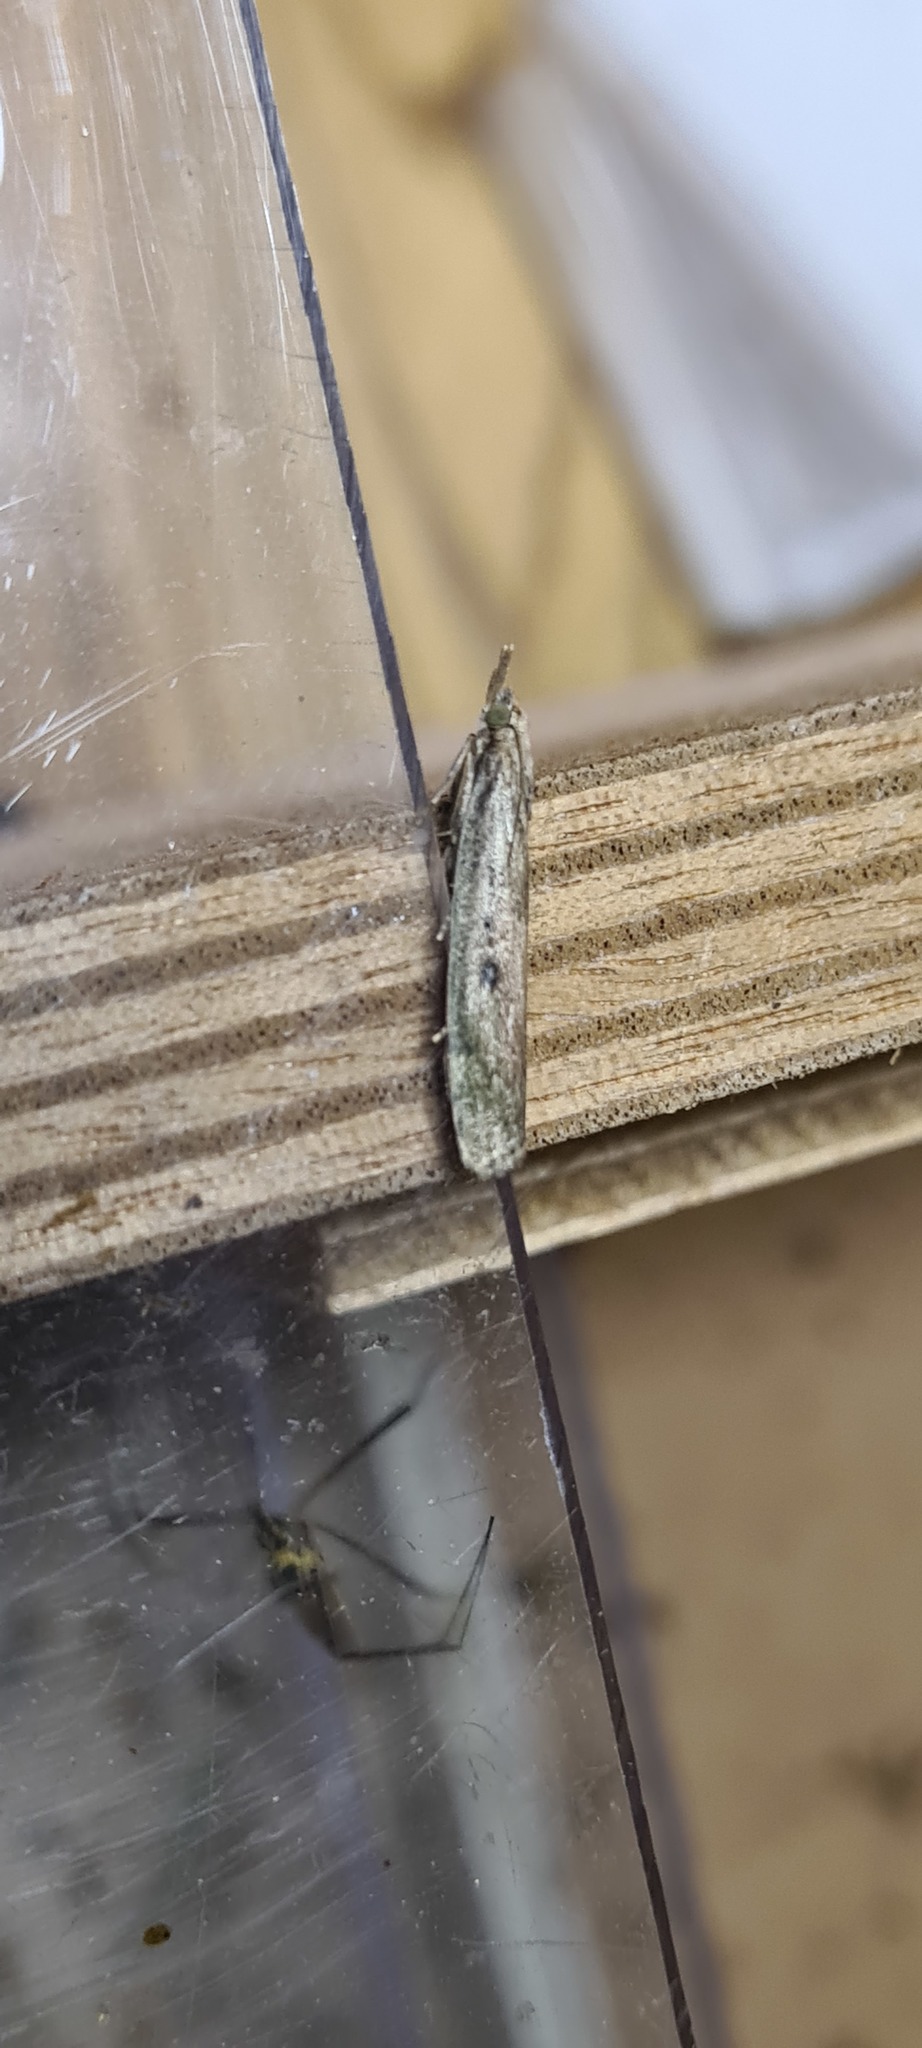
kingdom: Animalia
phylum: Arthropoda
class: Insecta
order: Lepidoptera
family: Pyralidae
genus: Aphomia
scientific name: Aphomia sociella
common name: Bee moth
